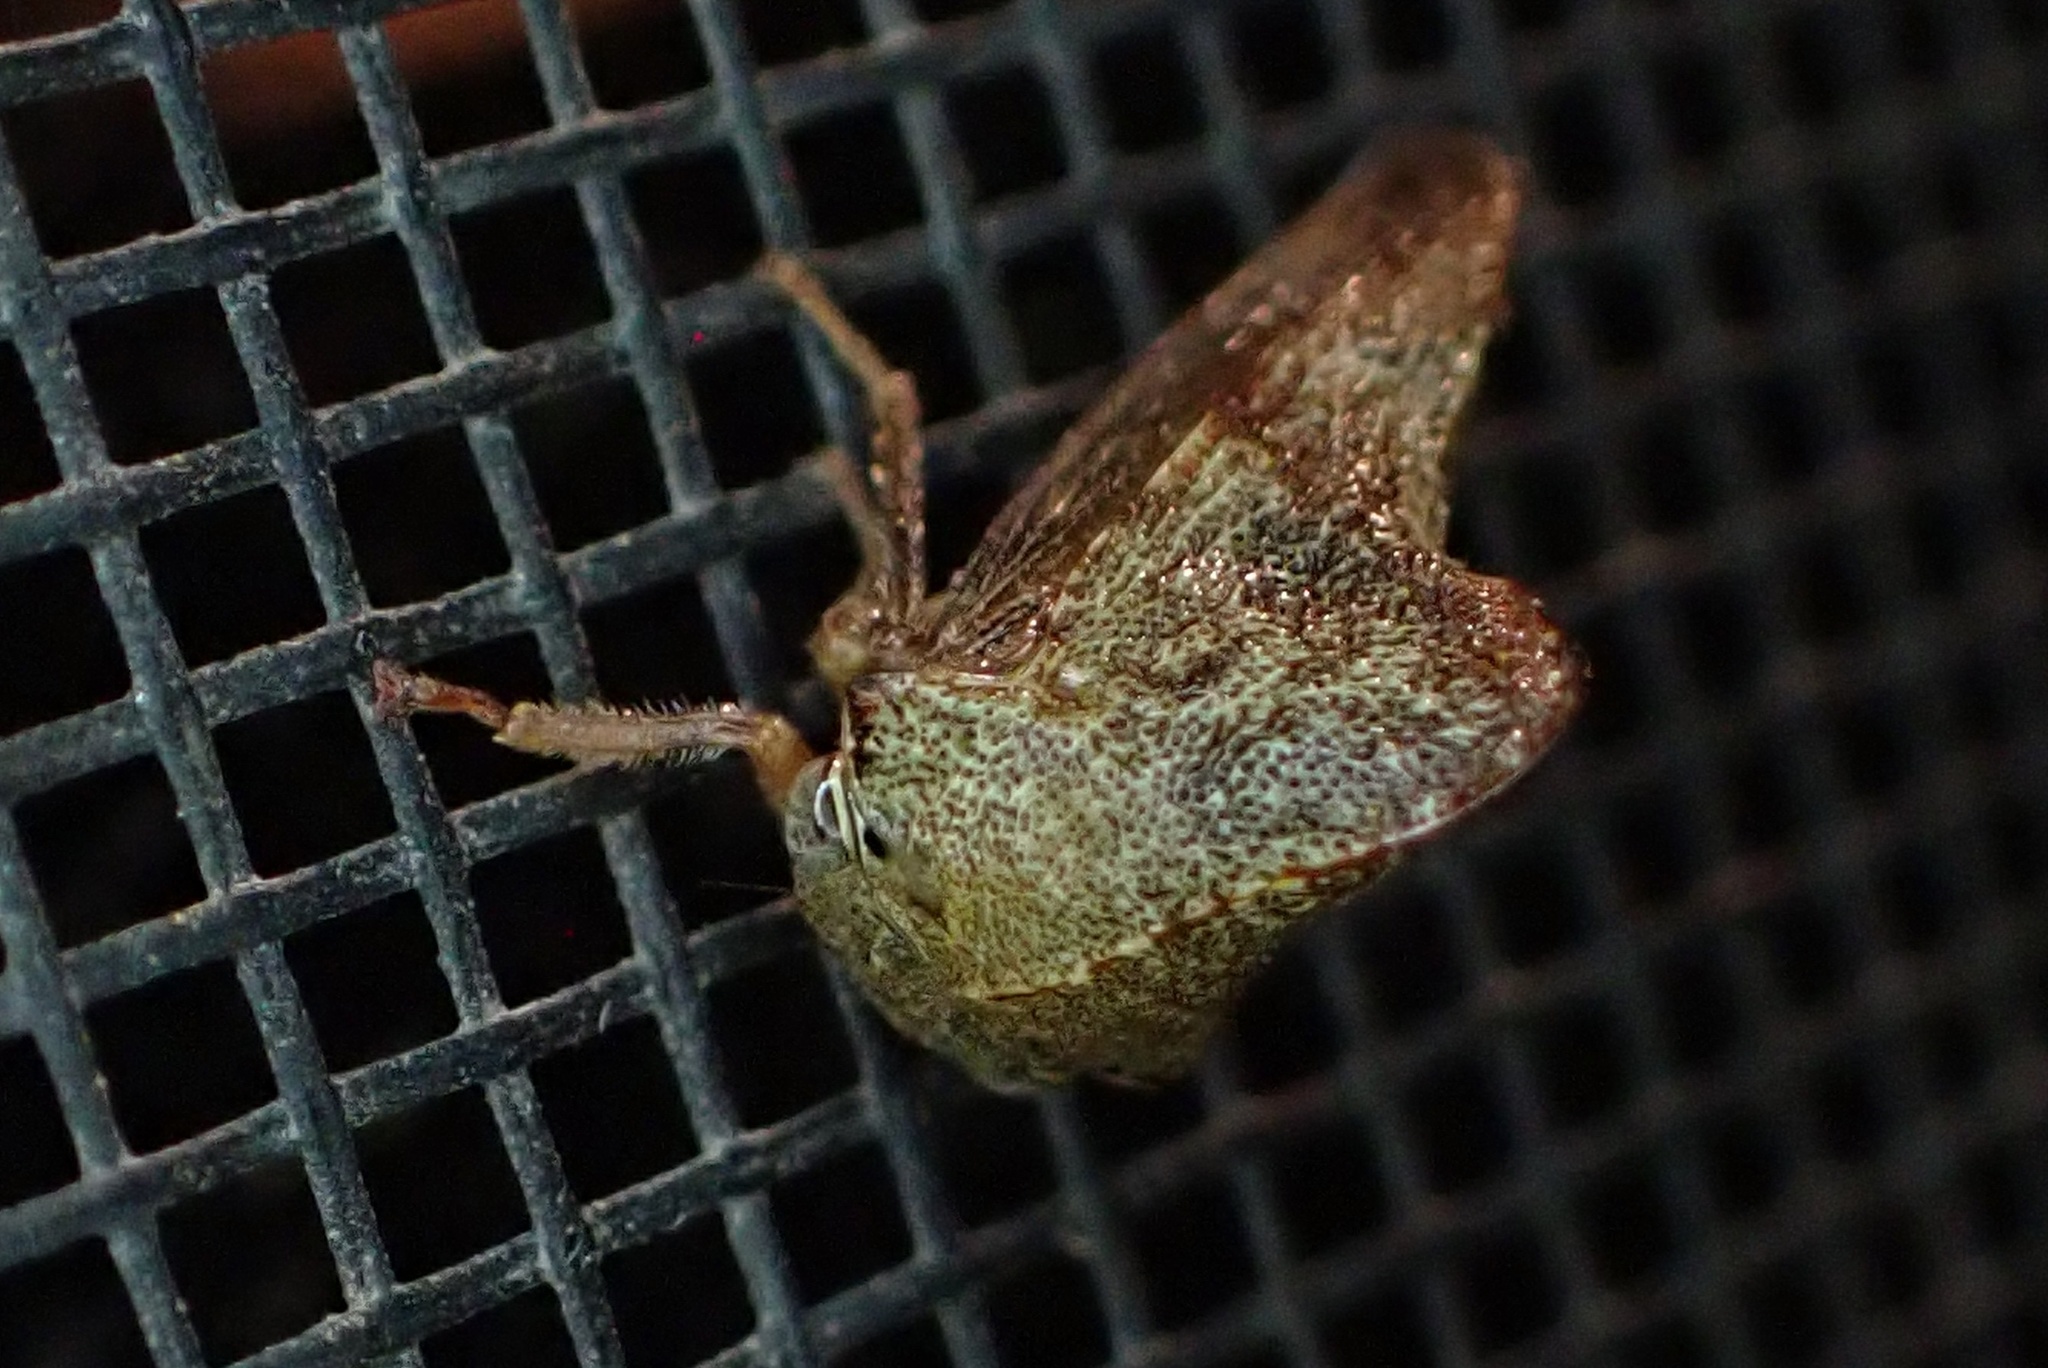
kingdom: Animalia
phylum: Arthropoda
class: Insecta
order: Hemiptera
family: Membracidae
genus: Telonaca
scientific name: Telonaca ramona
